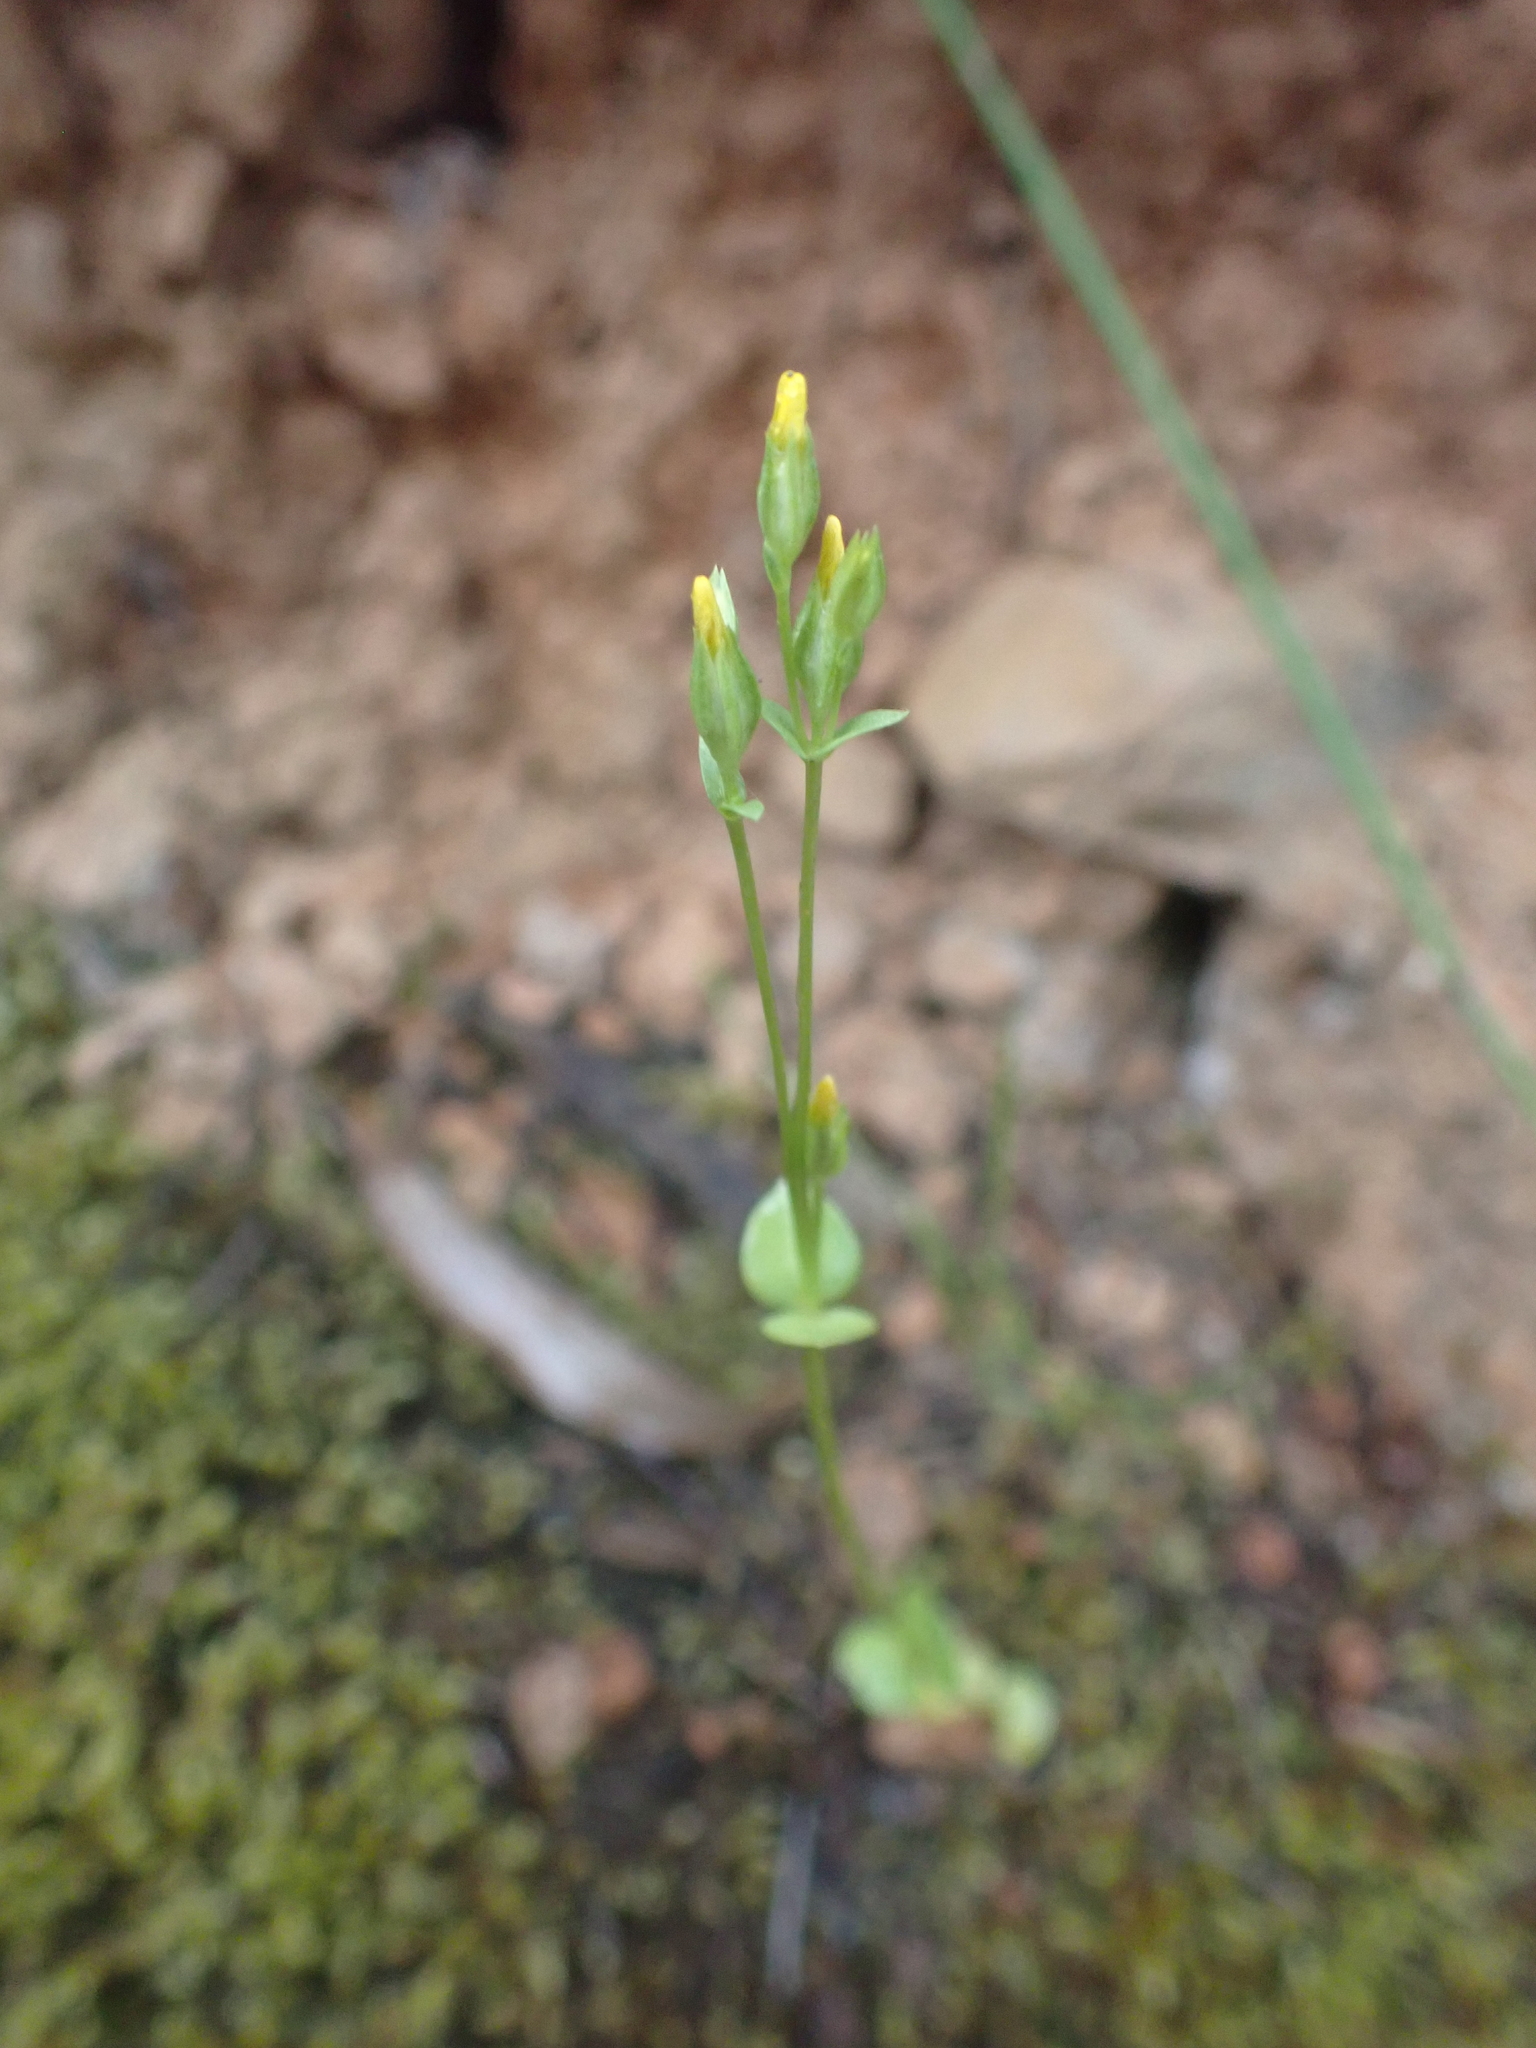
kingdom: Plantae
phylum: Tracheophyta
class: Magnoliopsida
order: Gentianales
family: Gentianaceae
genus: Sebaea
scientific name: Sebaea ovata
